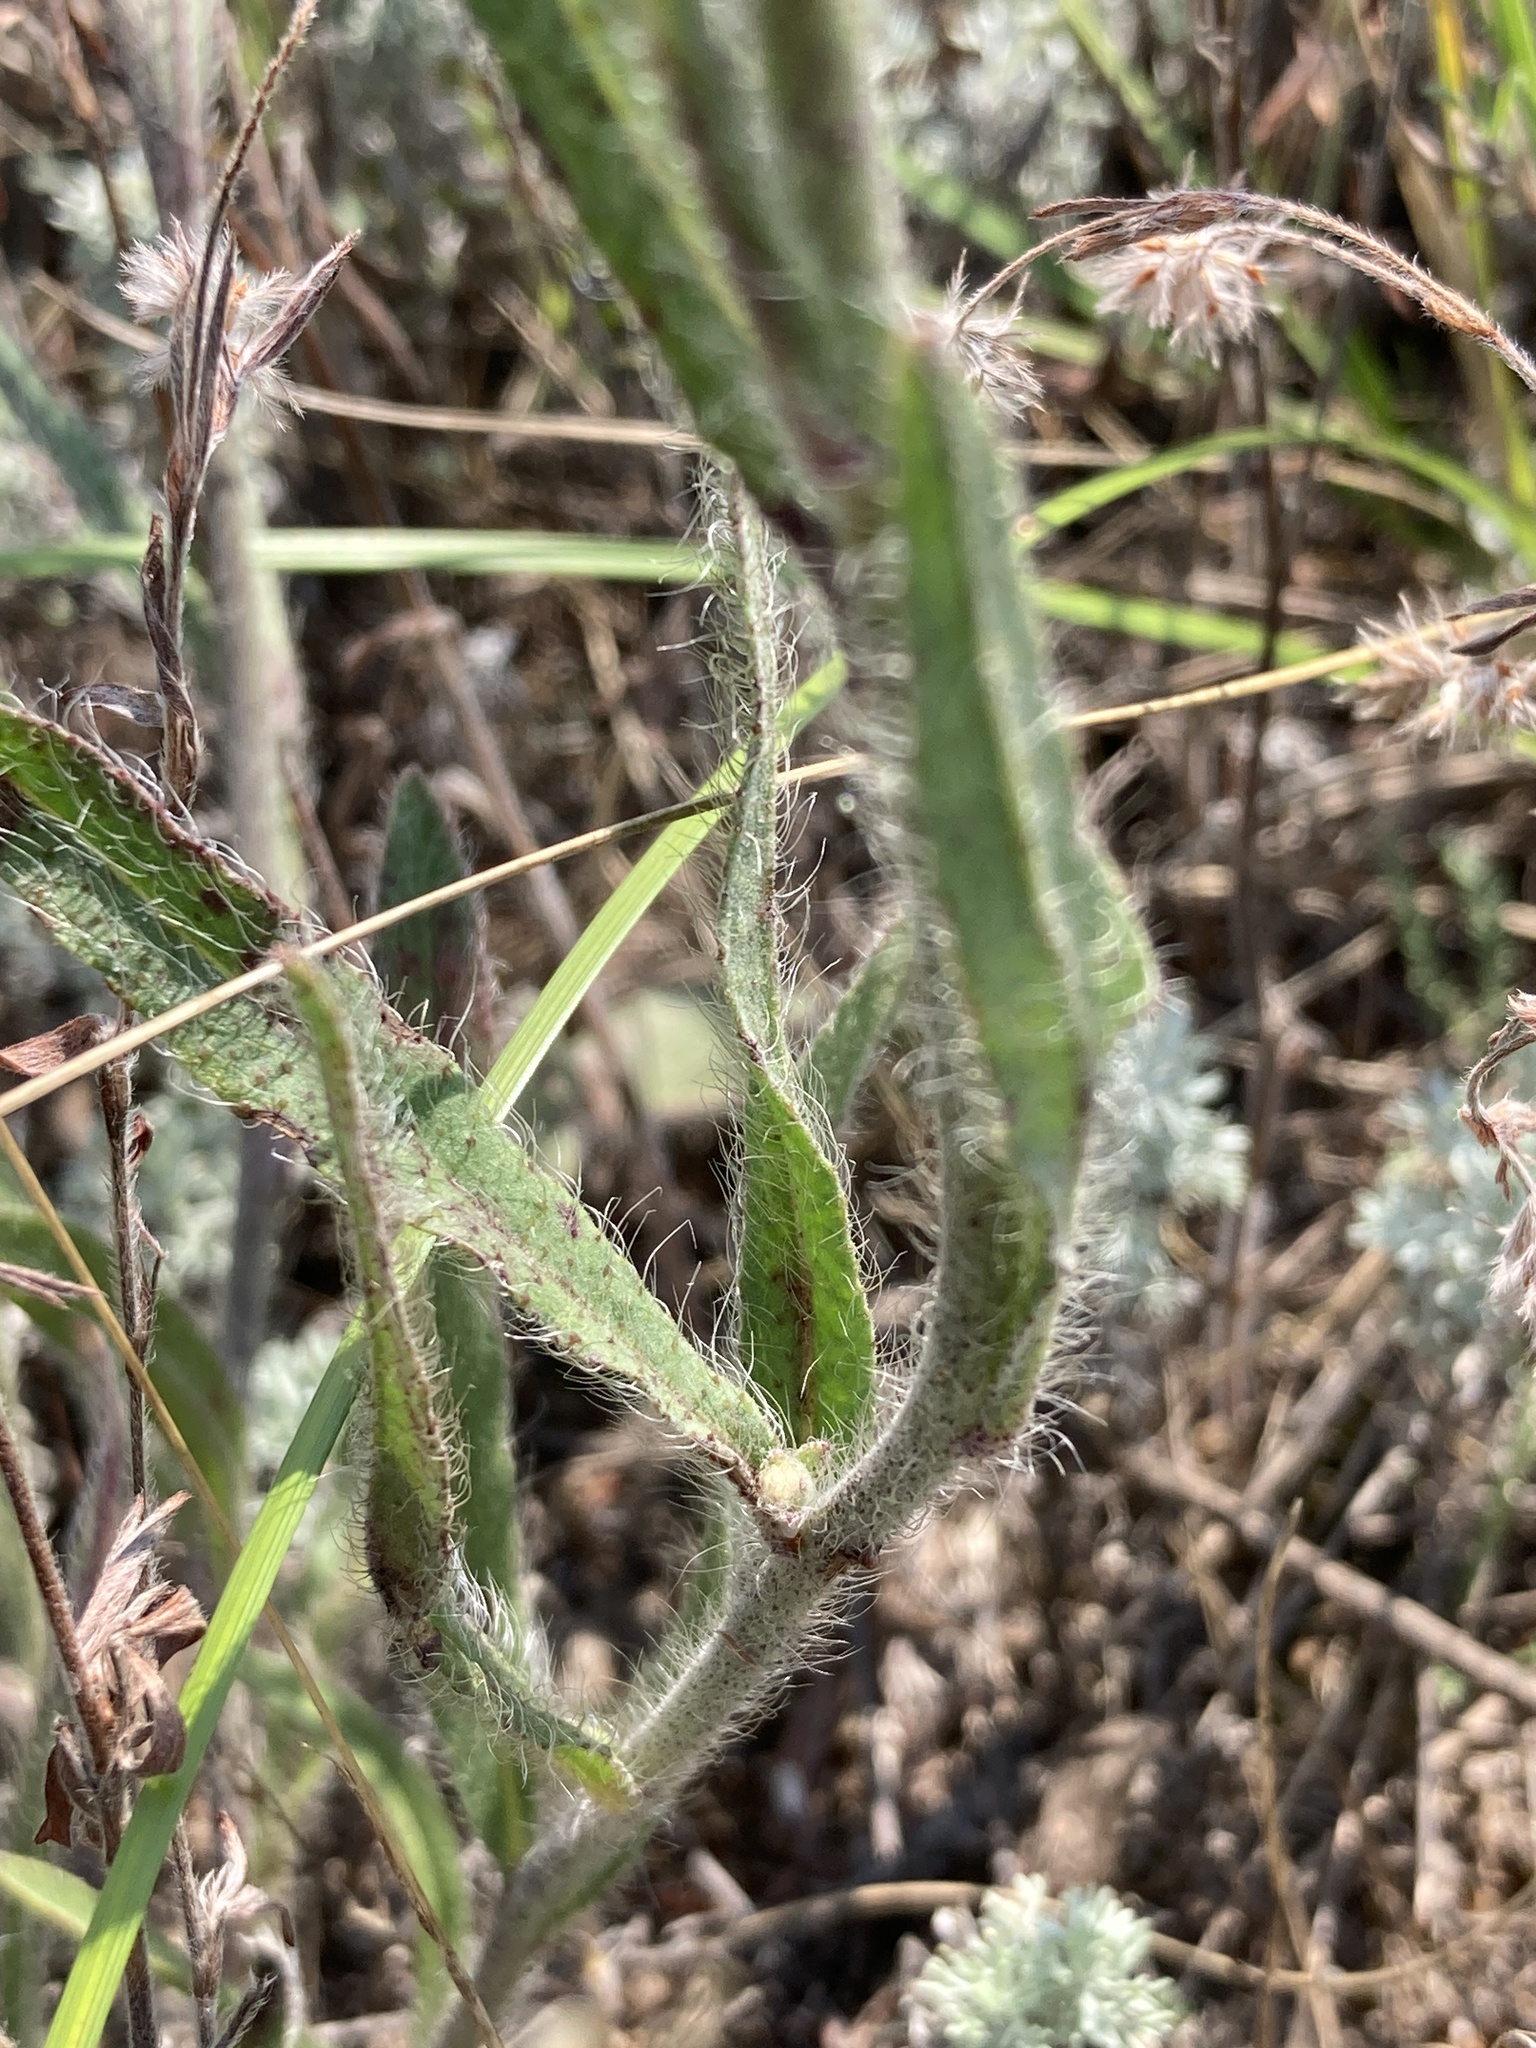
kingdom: Plantae
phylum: Tracheophyta
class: Magnoliopsida
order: Asterales
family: Asteraceae
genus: Pilosella
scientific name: Pilosella echioides
